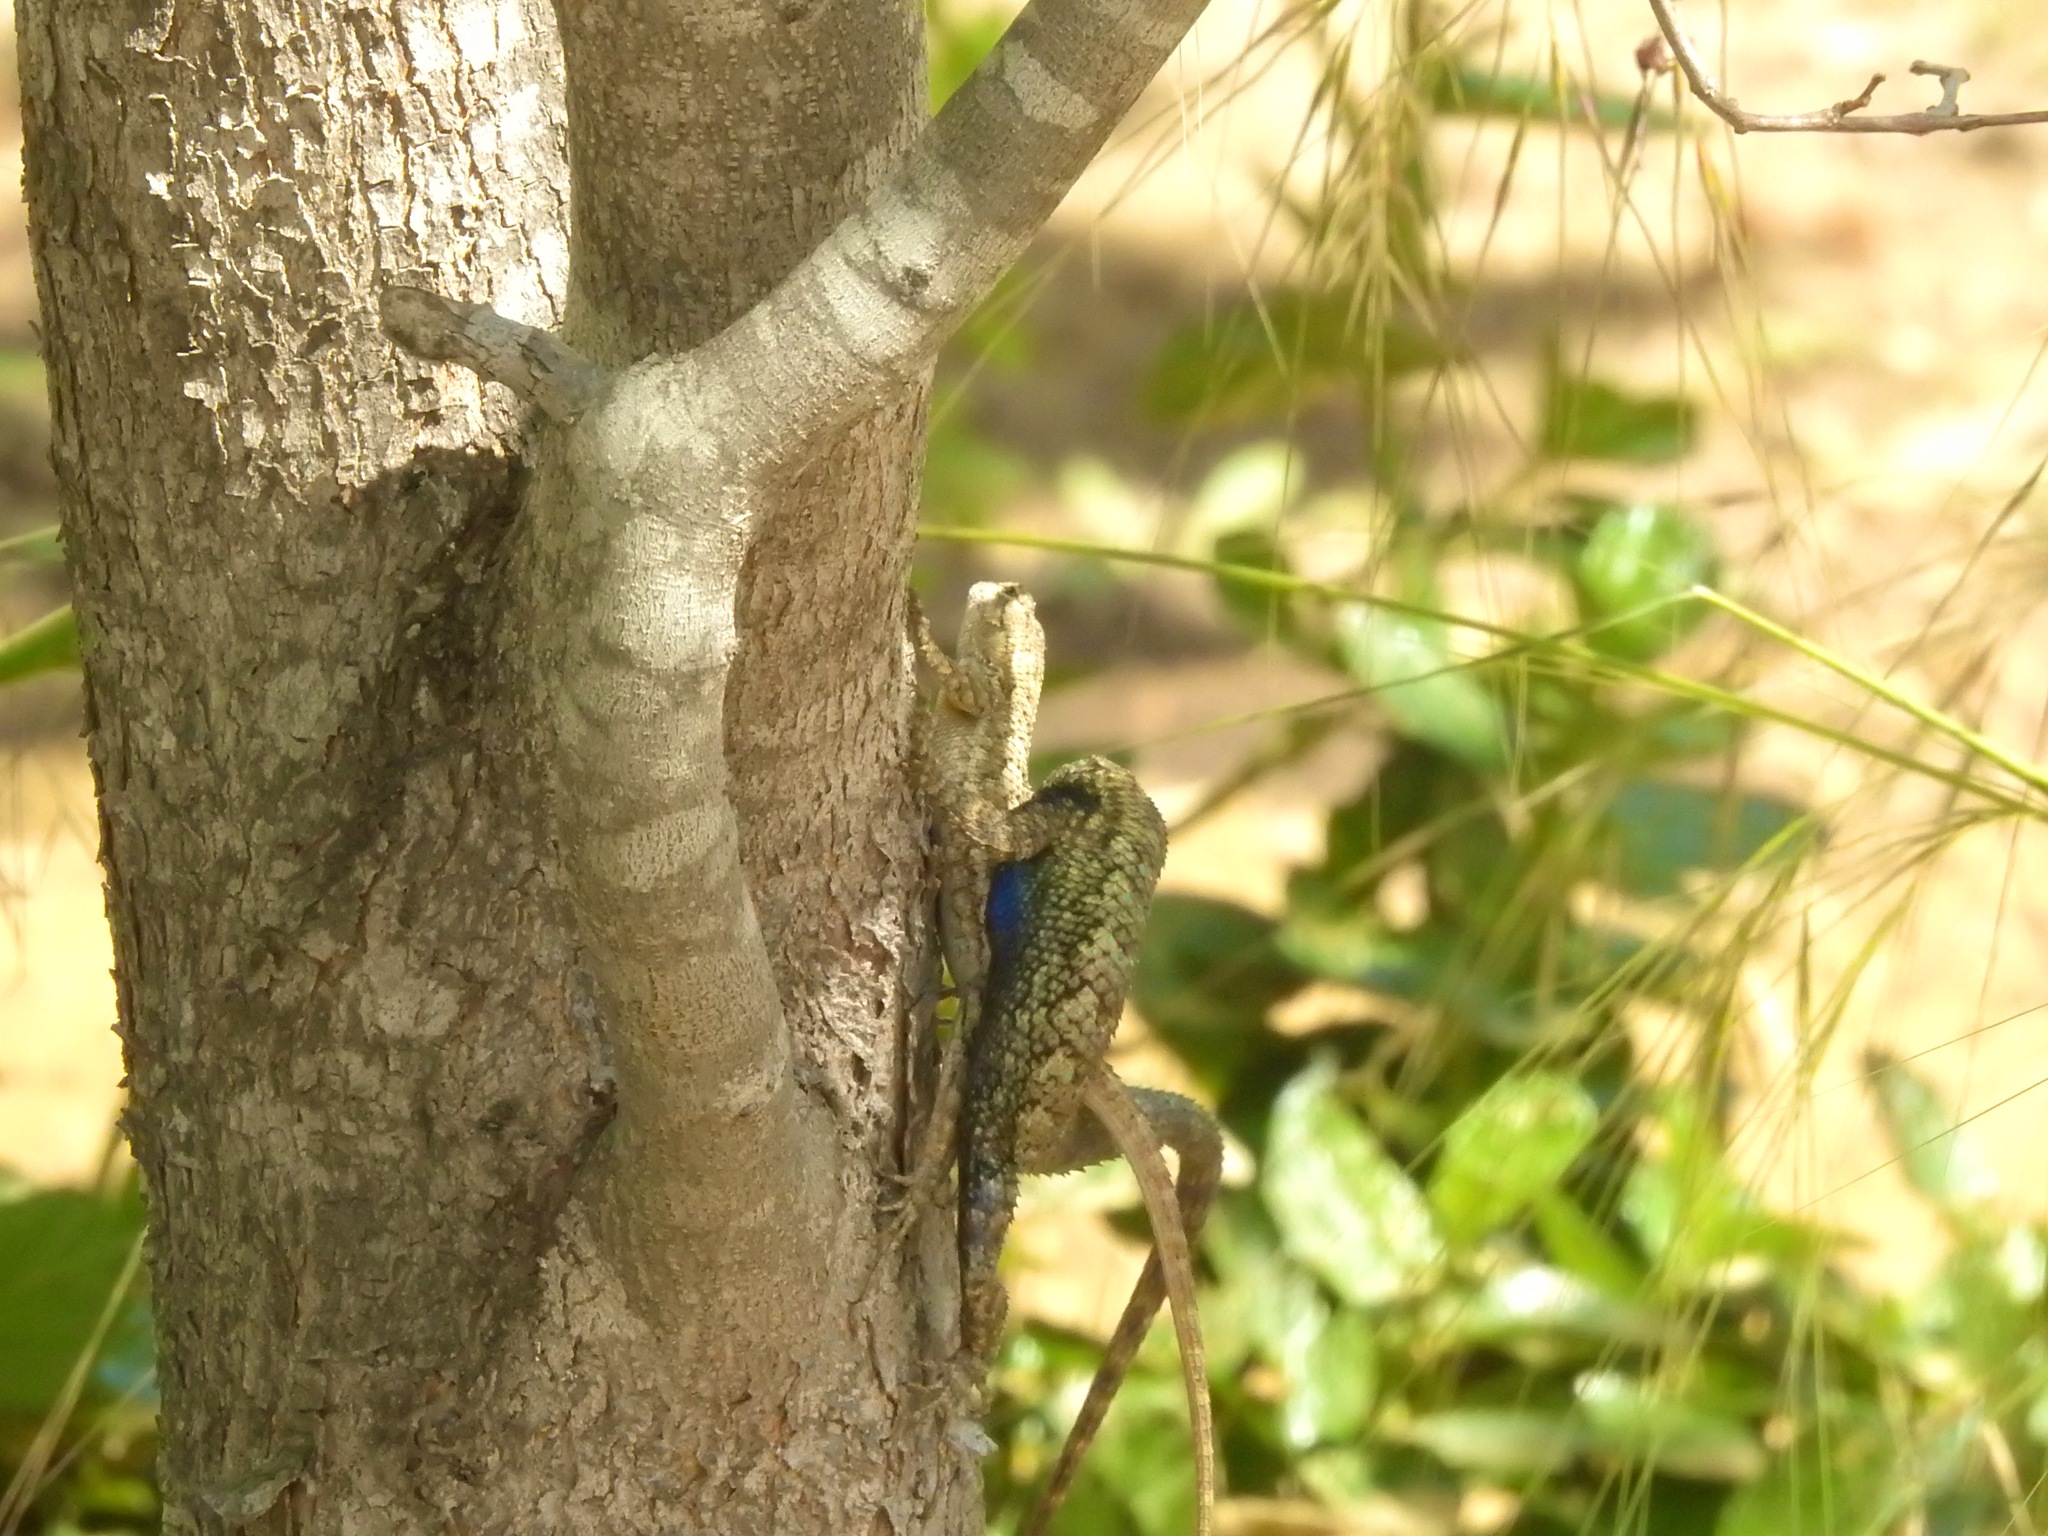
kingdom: Animalia
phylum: Chordata
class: Squamata
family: Phrynosomatidae
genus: Sceloporus
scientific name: Sceloporus occidentalis
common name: Western fence lizard
